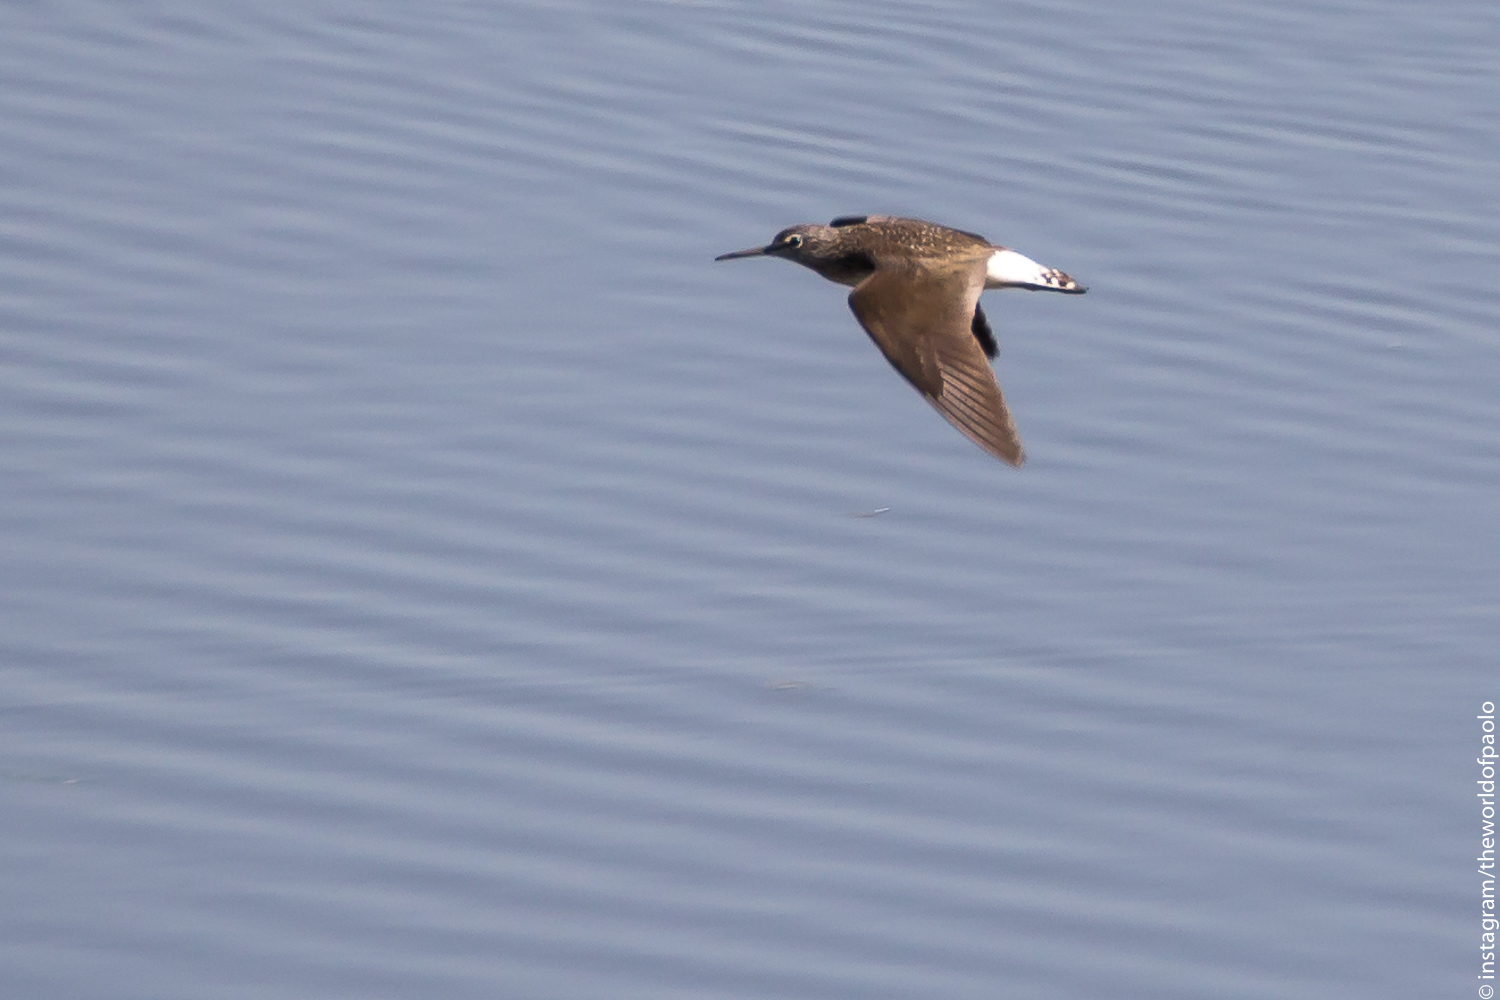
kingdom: Animalia
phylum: Chordata
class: Aves
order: Charadriiformes
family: Scolopacidae
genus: Tringa
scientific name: Tringa ochropus
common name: Green sandpiper
